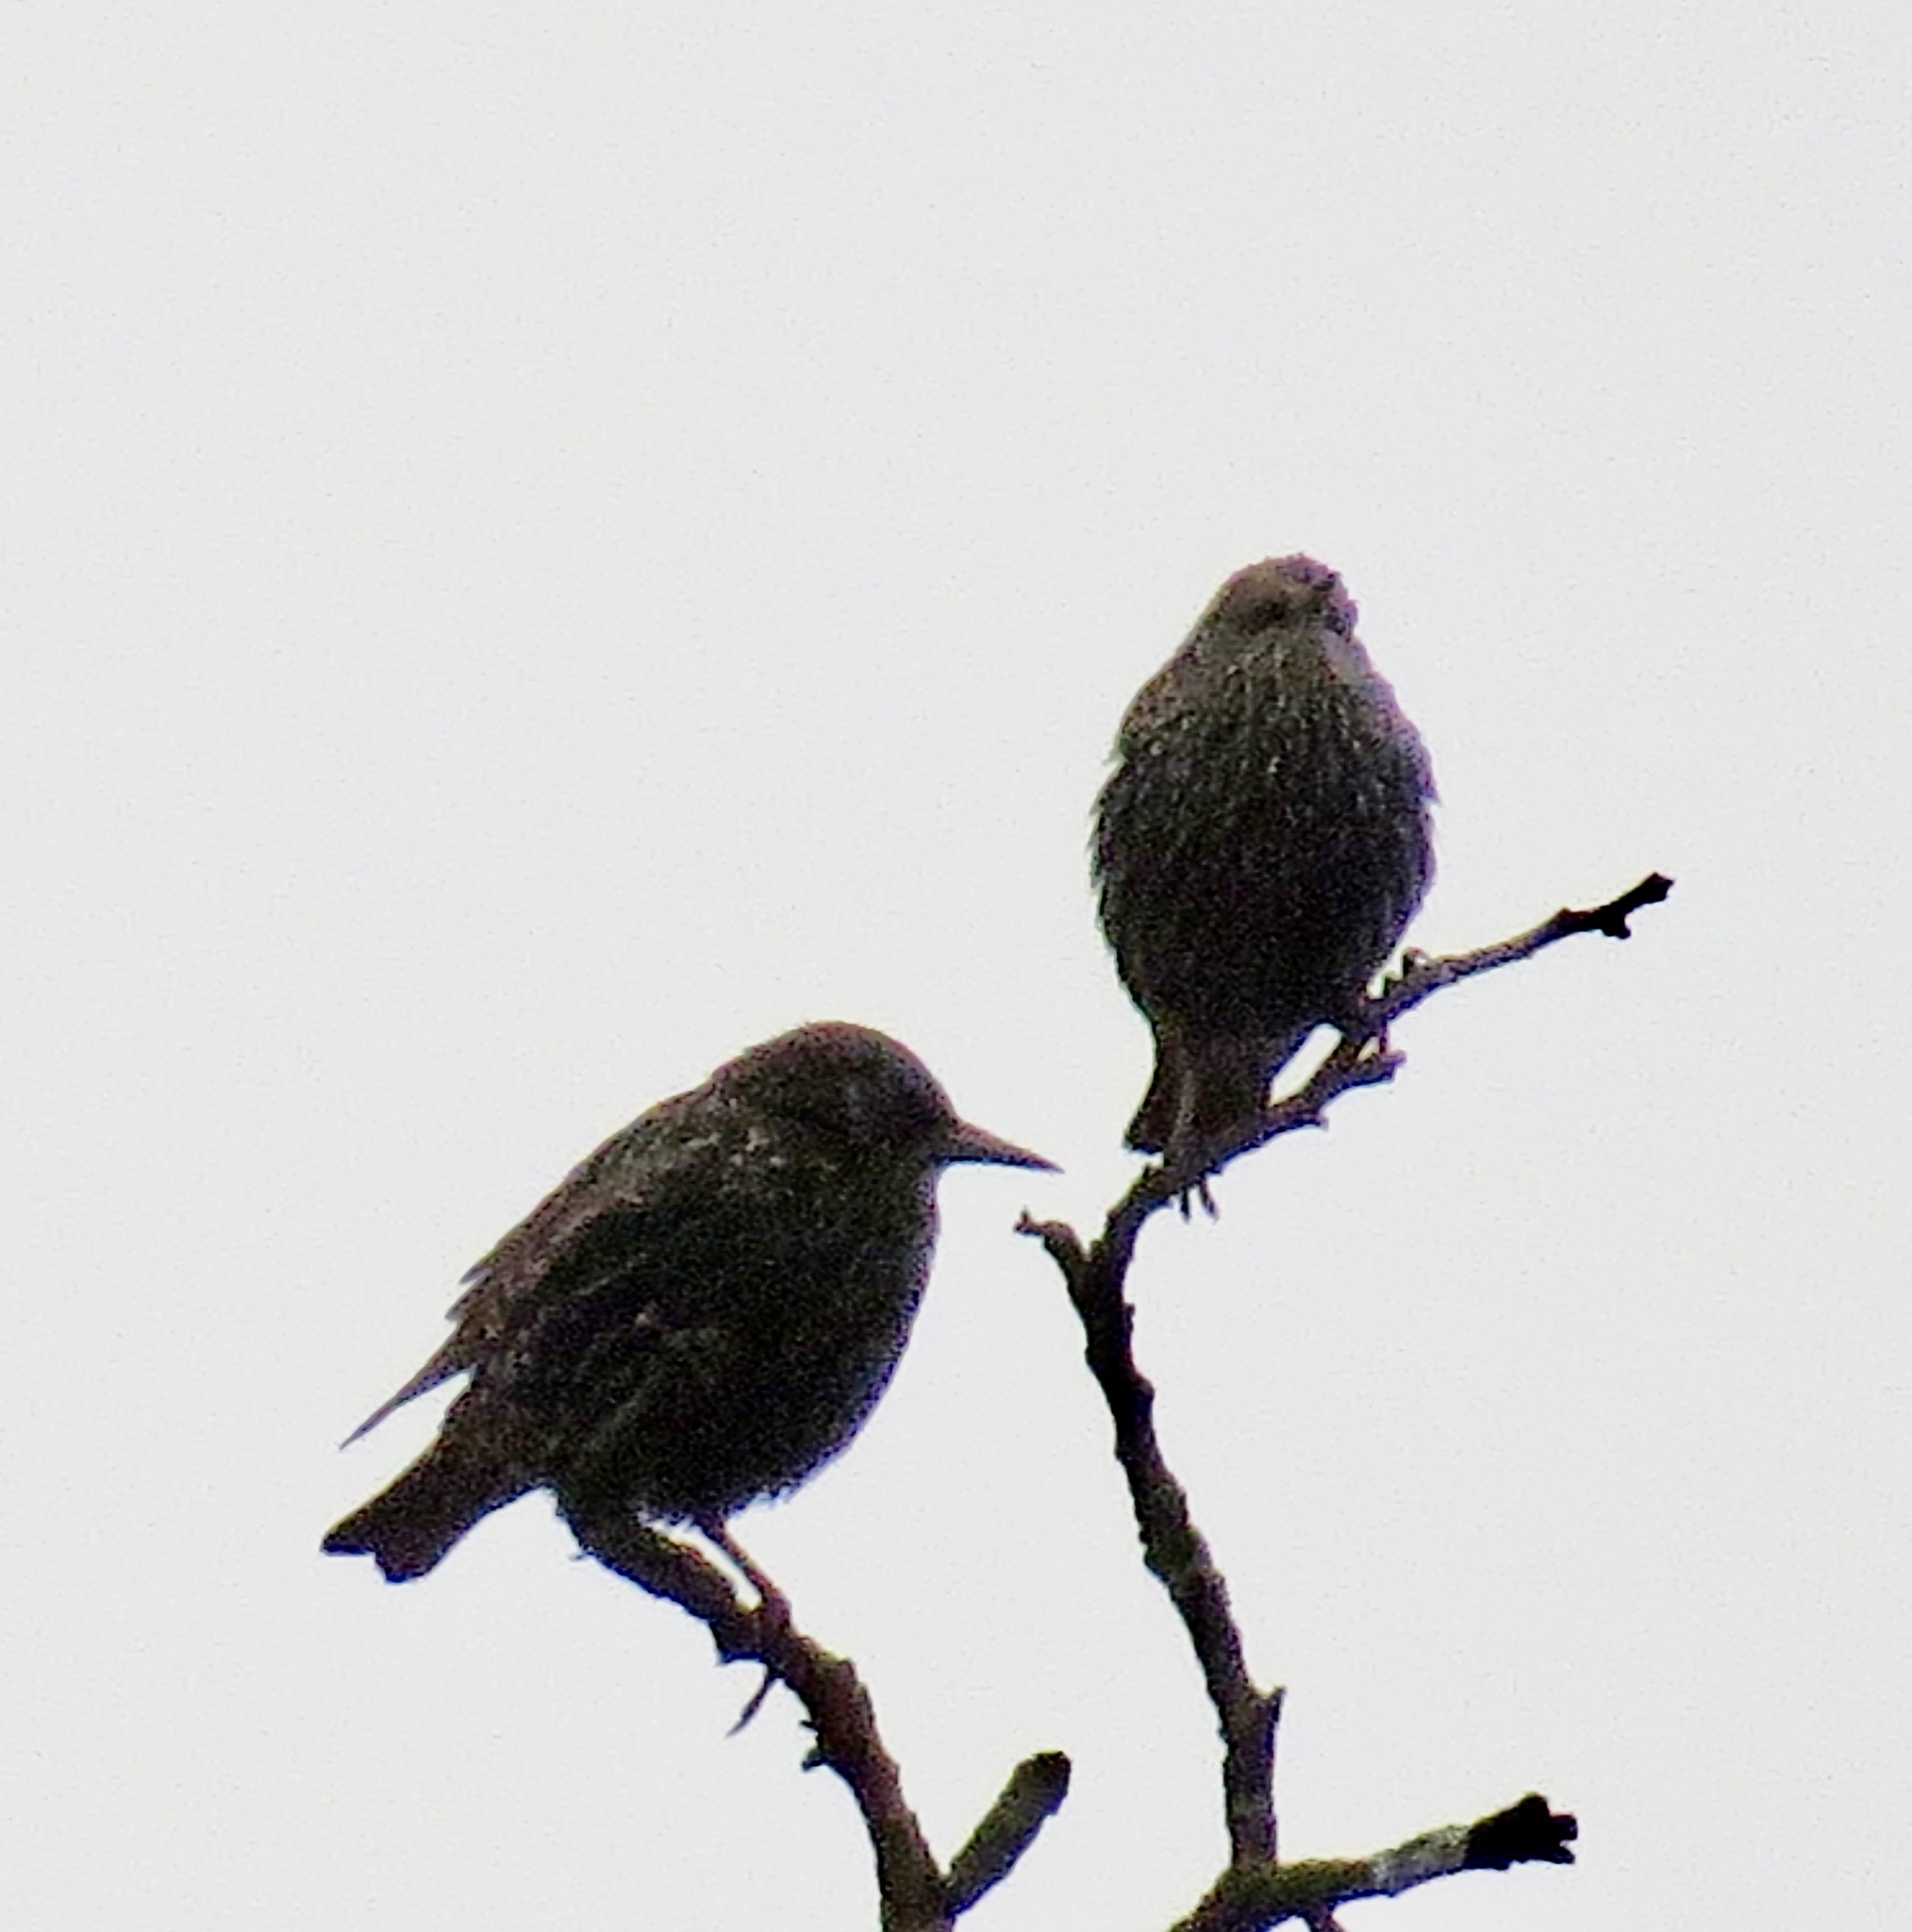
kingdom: Animalia
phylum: Chordata
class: Aves
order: Passeriformes
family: Sturnidae
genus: Sturnus
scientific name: Sturnus vulgaris
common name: Common starling
